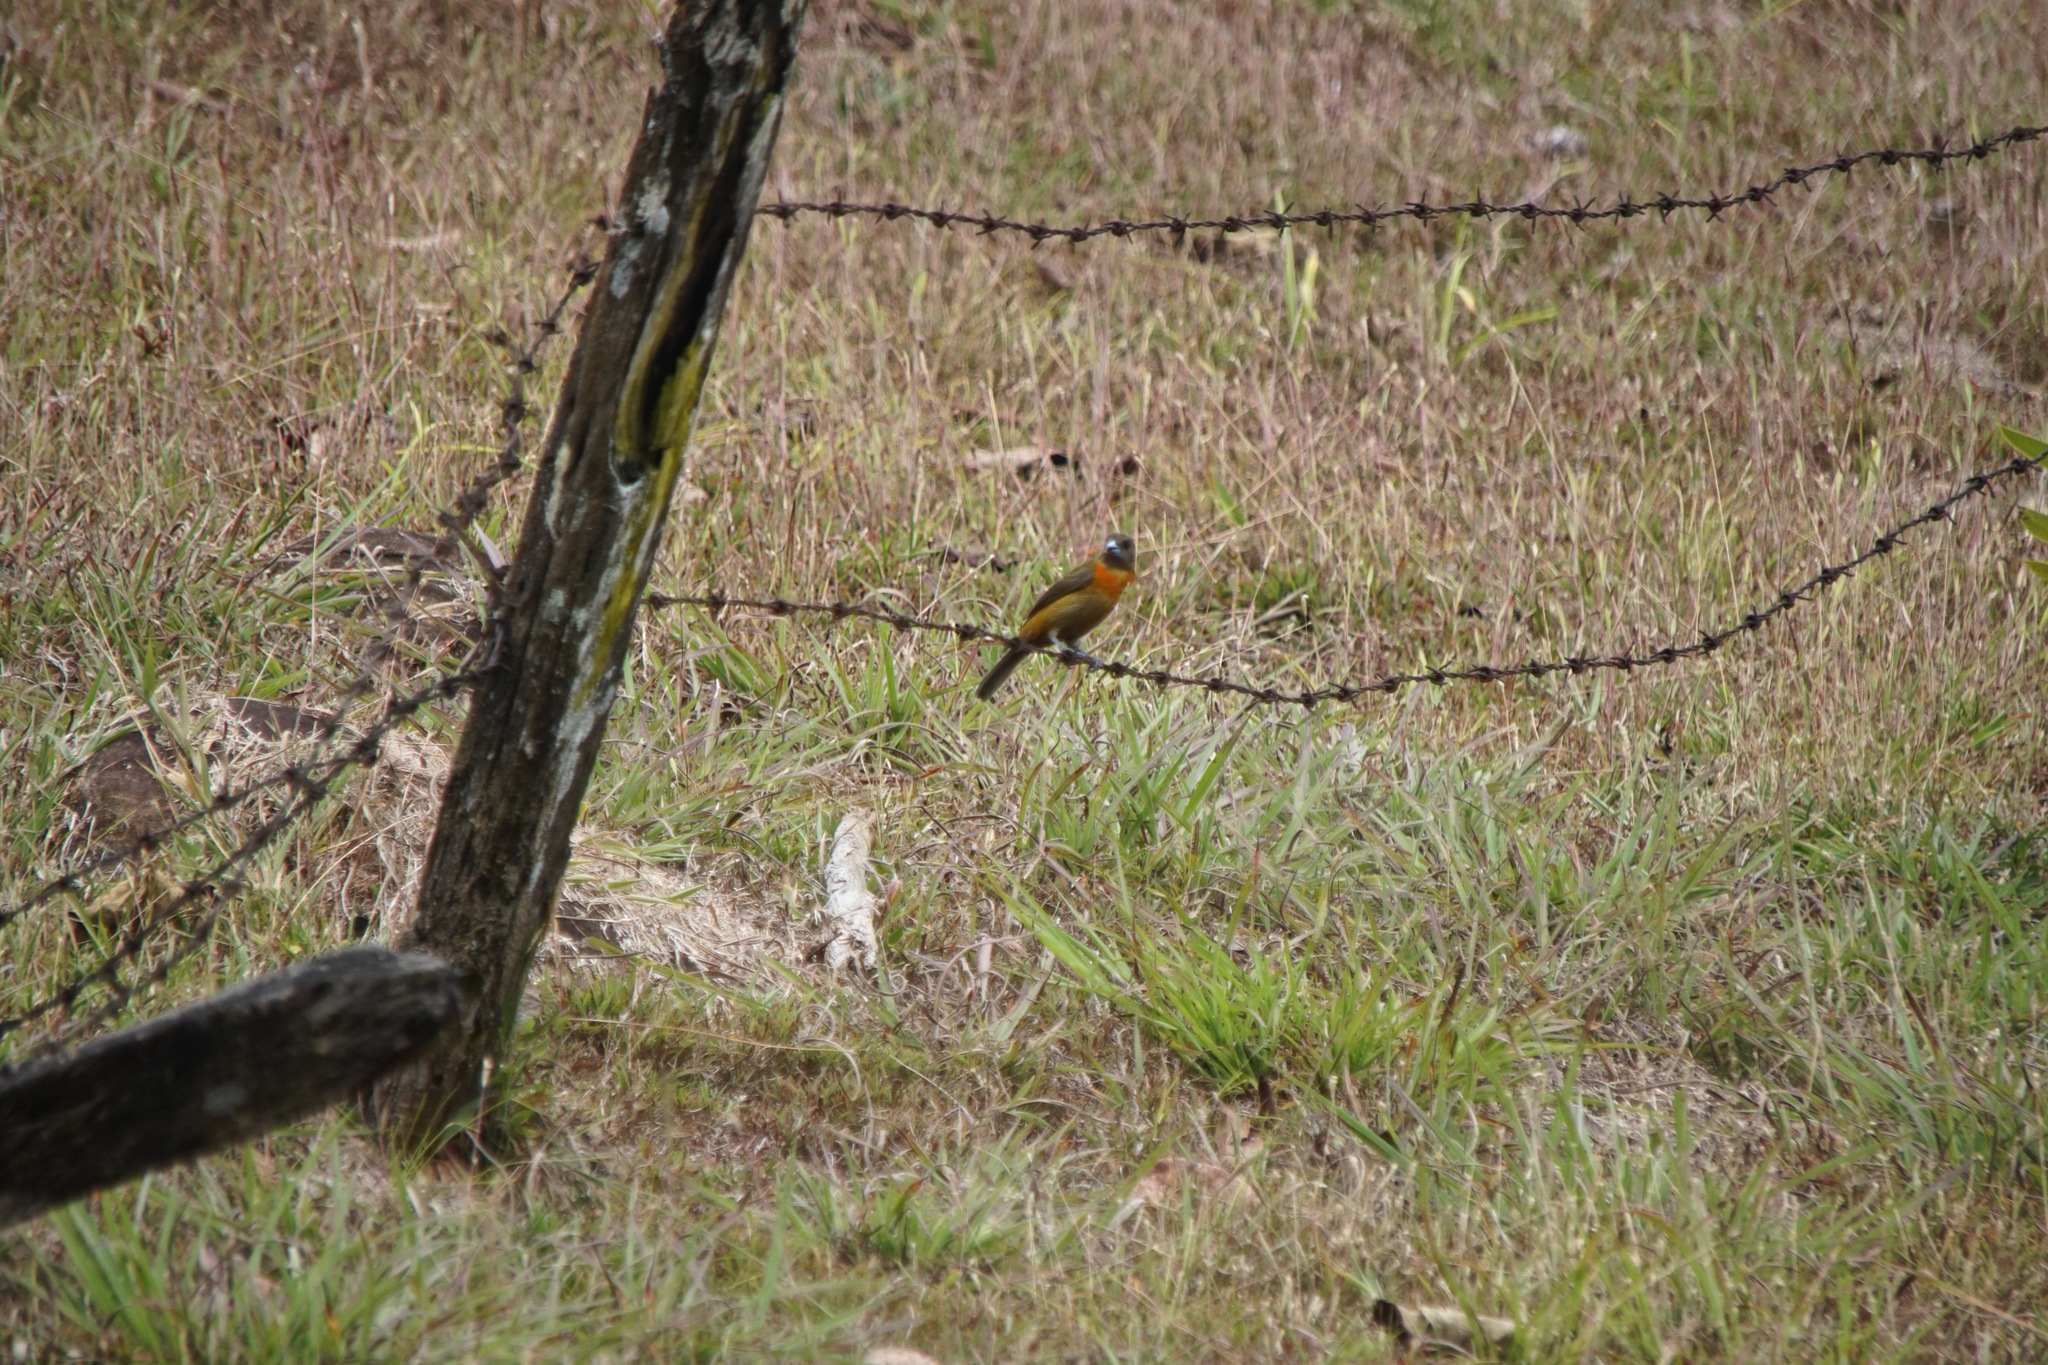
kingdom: Animalia
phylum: Chordata
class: Aves
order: Passeriformes
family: Thraupidae
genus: Ramphocelus
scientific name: Ramphocelus passerinii
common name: Passerini's tanager
